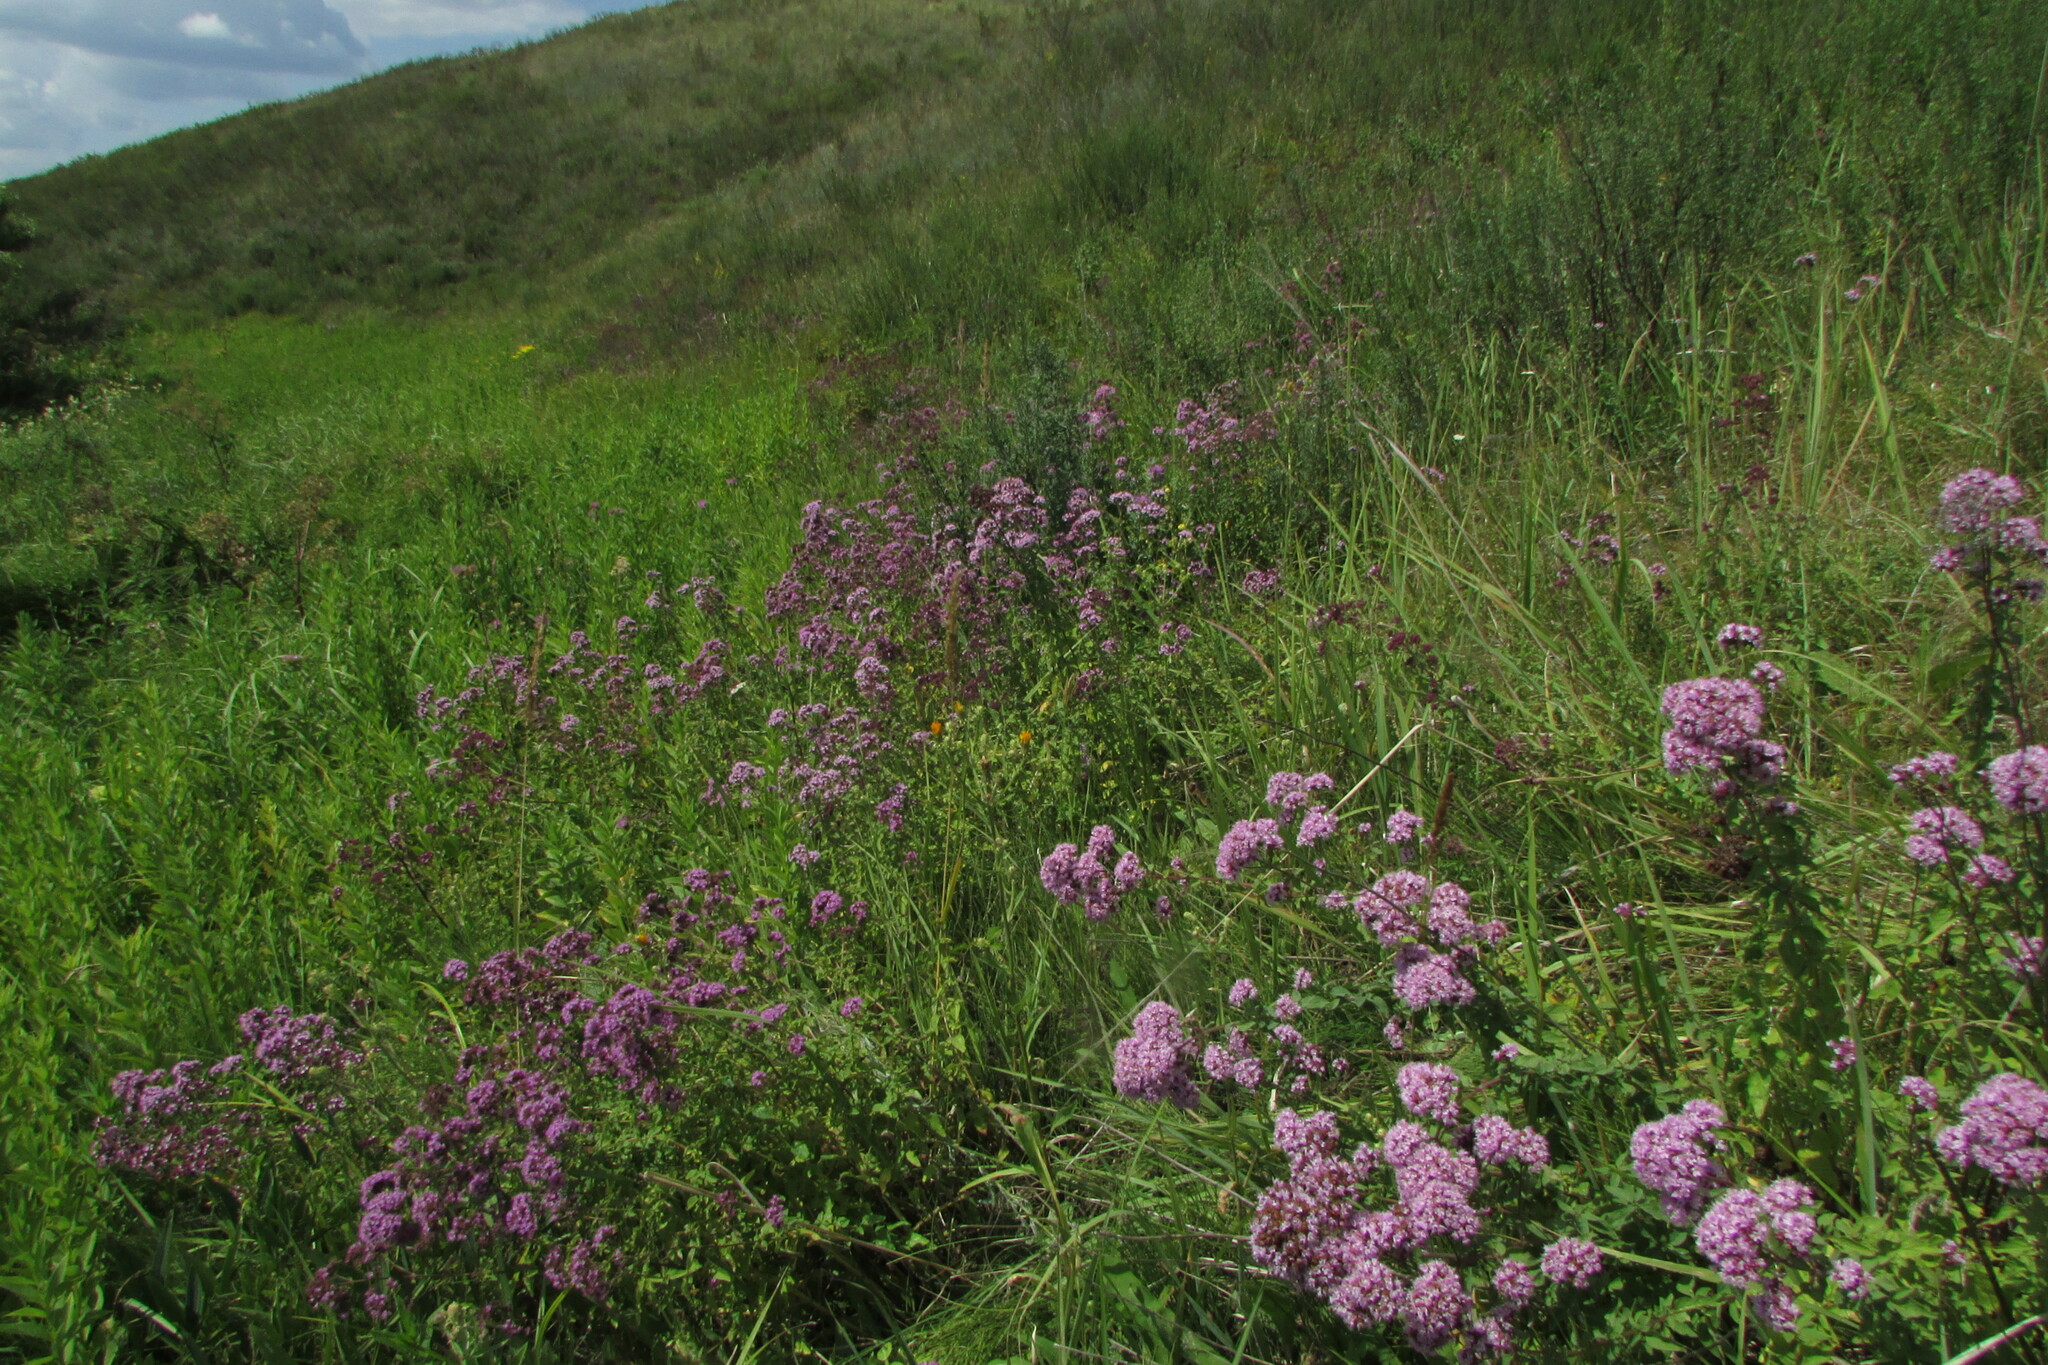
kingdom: Plantae
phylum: Tracheophyta
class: Magnoliopsida
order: Lamiales
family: Lamiaceae
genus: Origanum
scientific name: Origanum vulgare
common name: Wild marjoram
